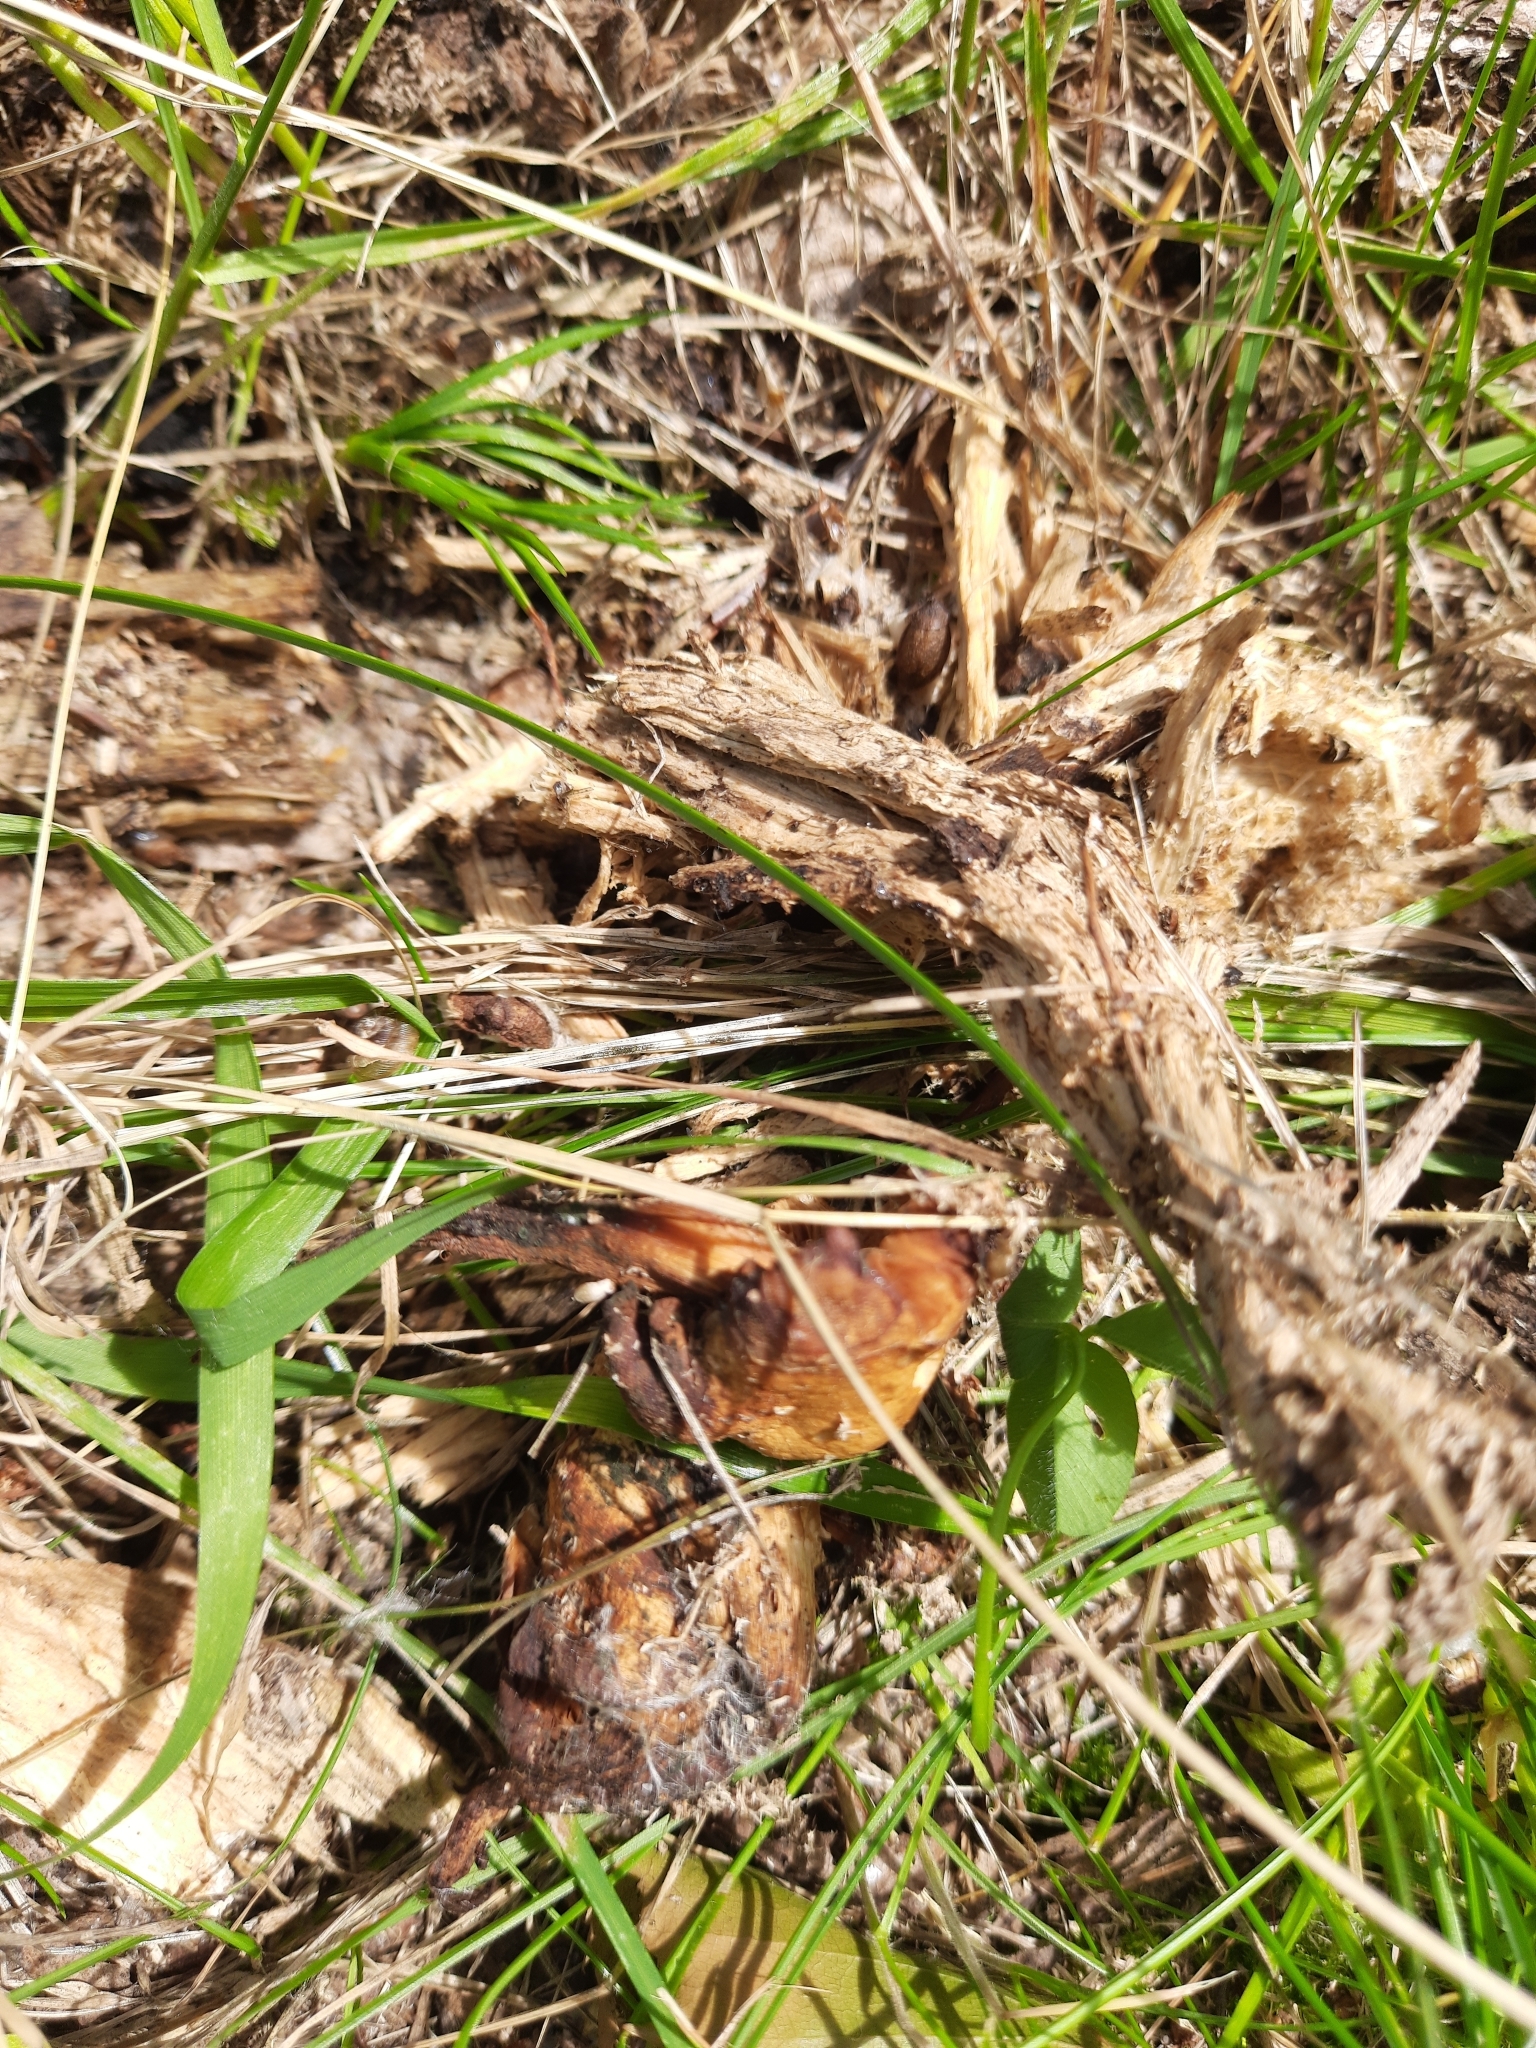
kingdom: Fungi
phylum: Basidiomycota
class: Agaricomycetes
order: Agaricales
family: Strophariaceae
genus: Kuehneromyces
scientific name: Kuehneromyces mutabilis
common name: Sheathed woodtuft
